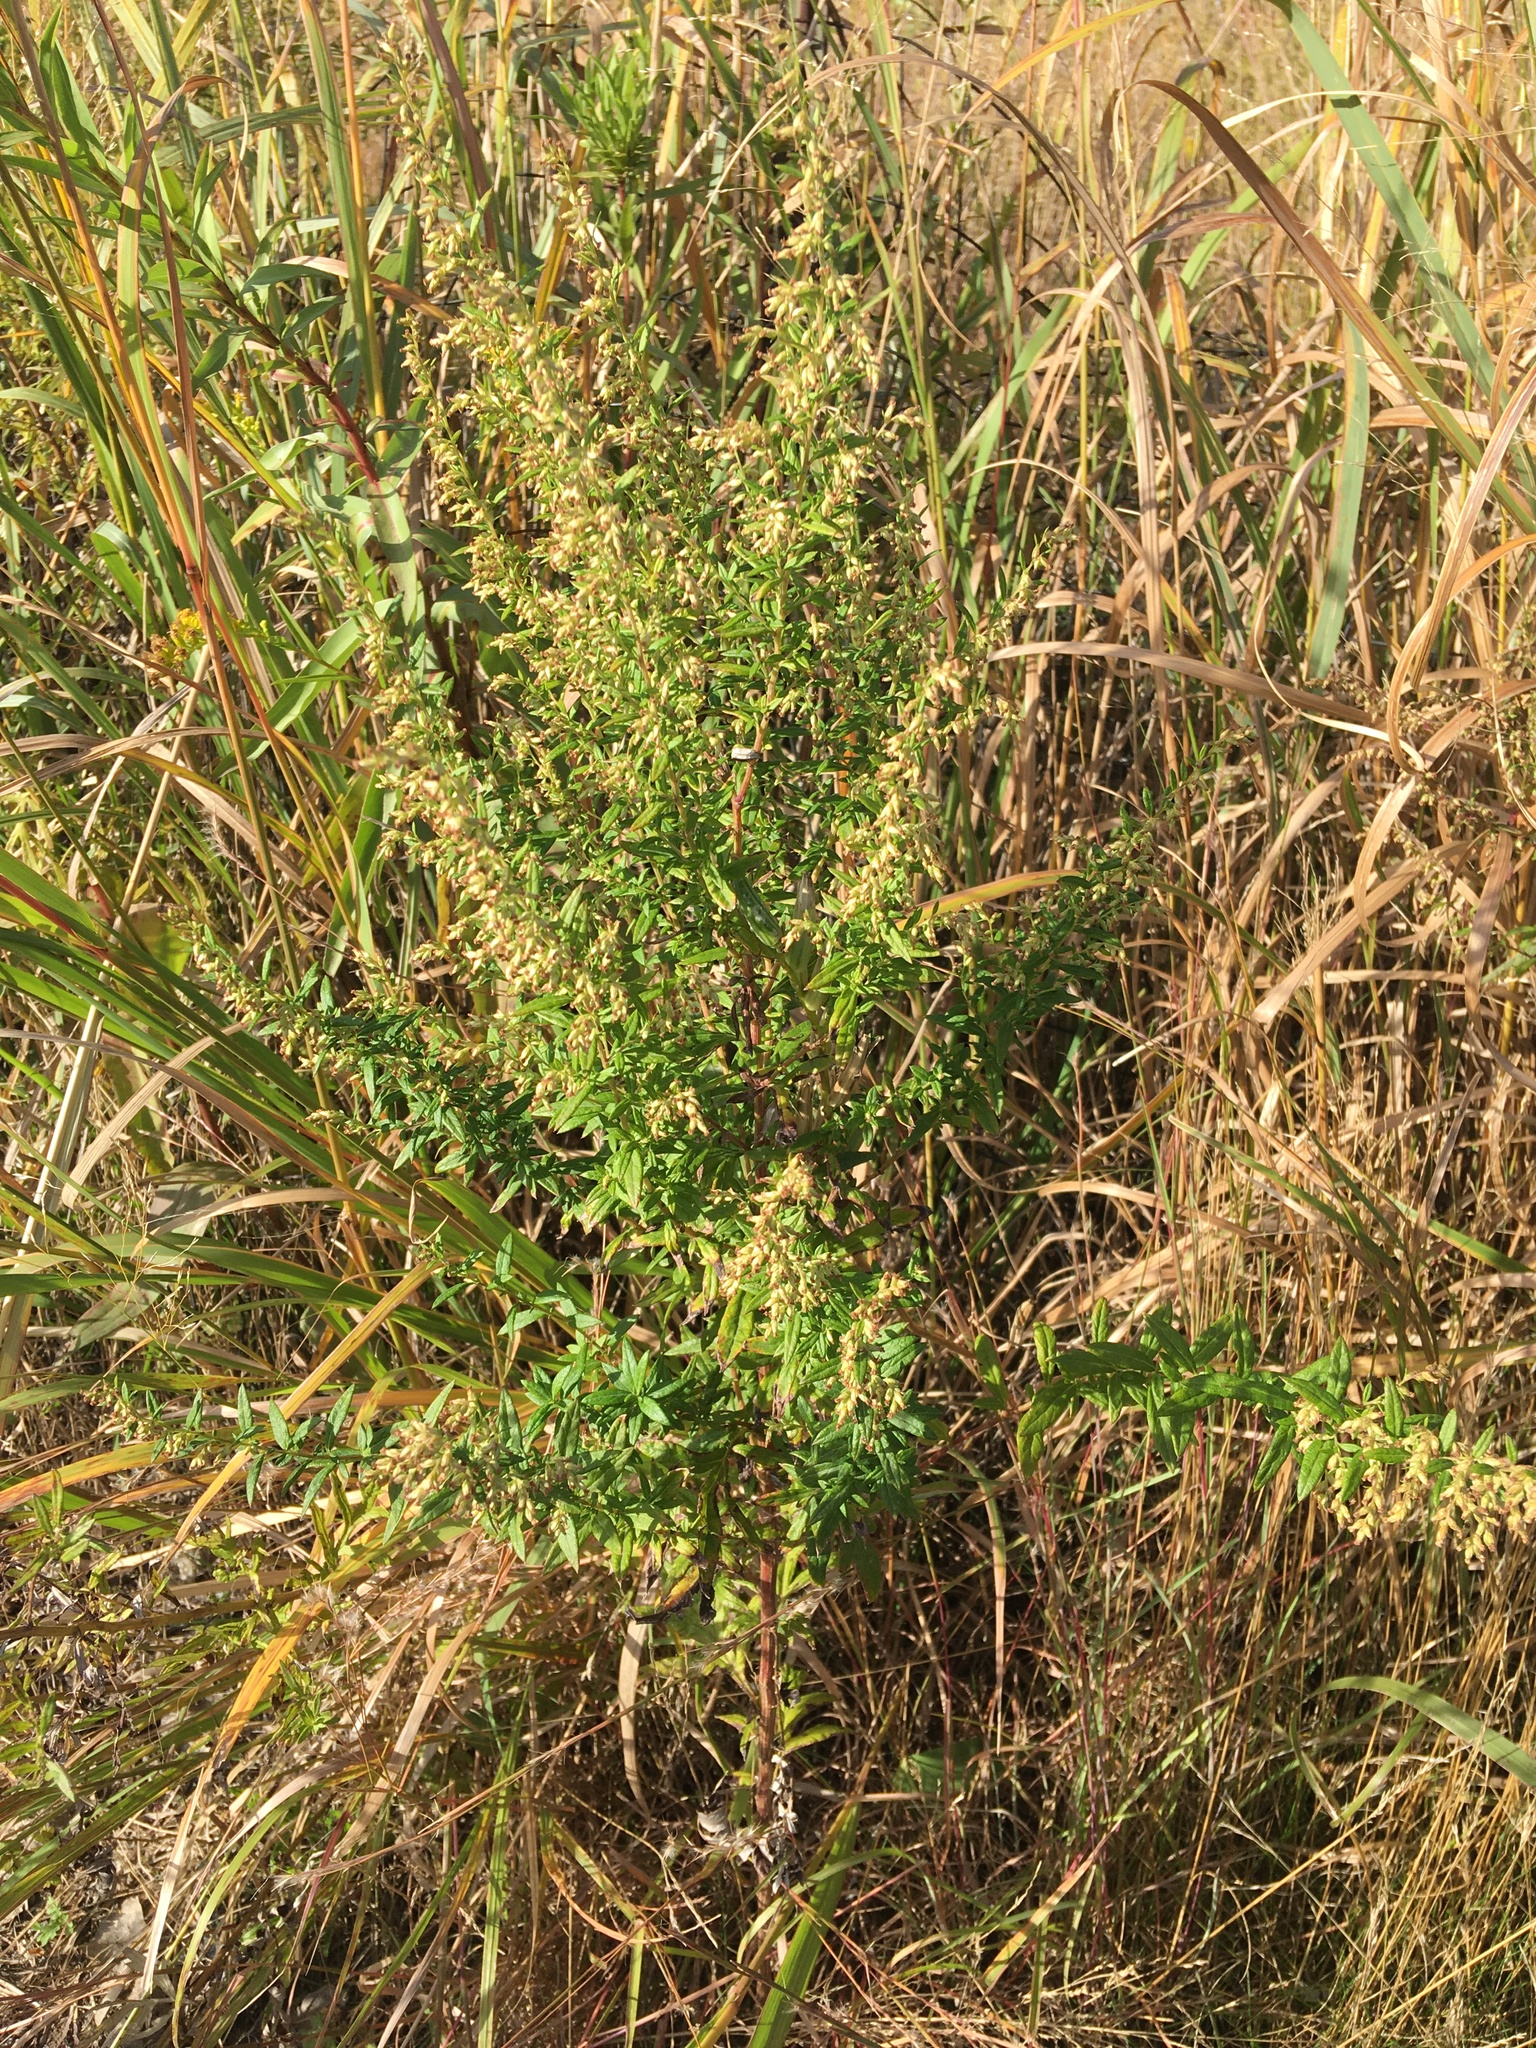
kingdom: Plantae
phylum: Tracheophyta
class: Magnoliopsida
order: Asterales
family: Asteraceae
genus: Artemisia
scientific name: Artemisia vulgaris
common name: Mugwort
